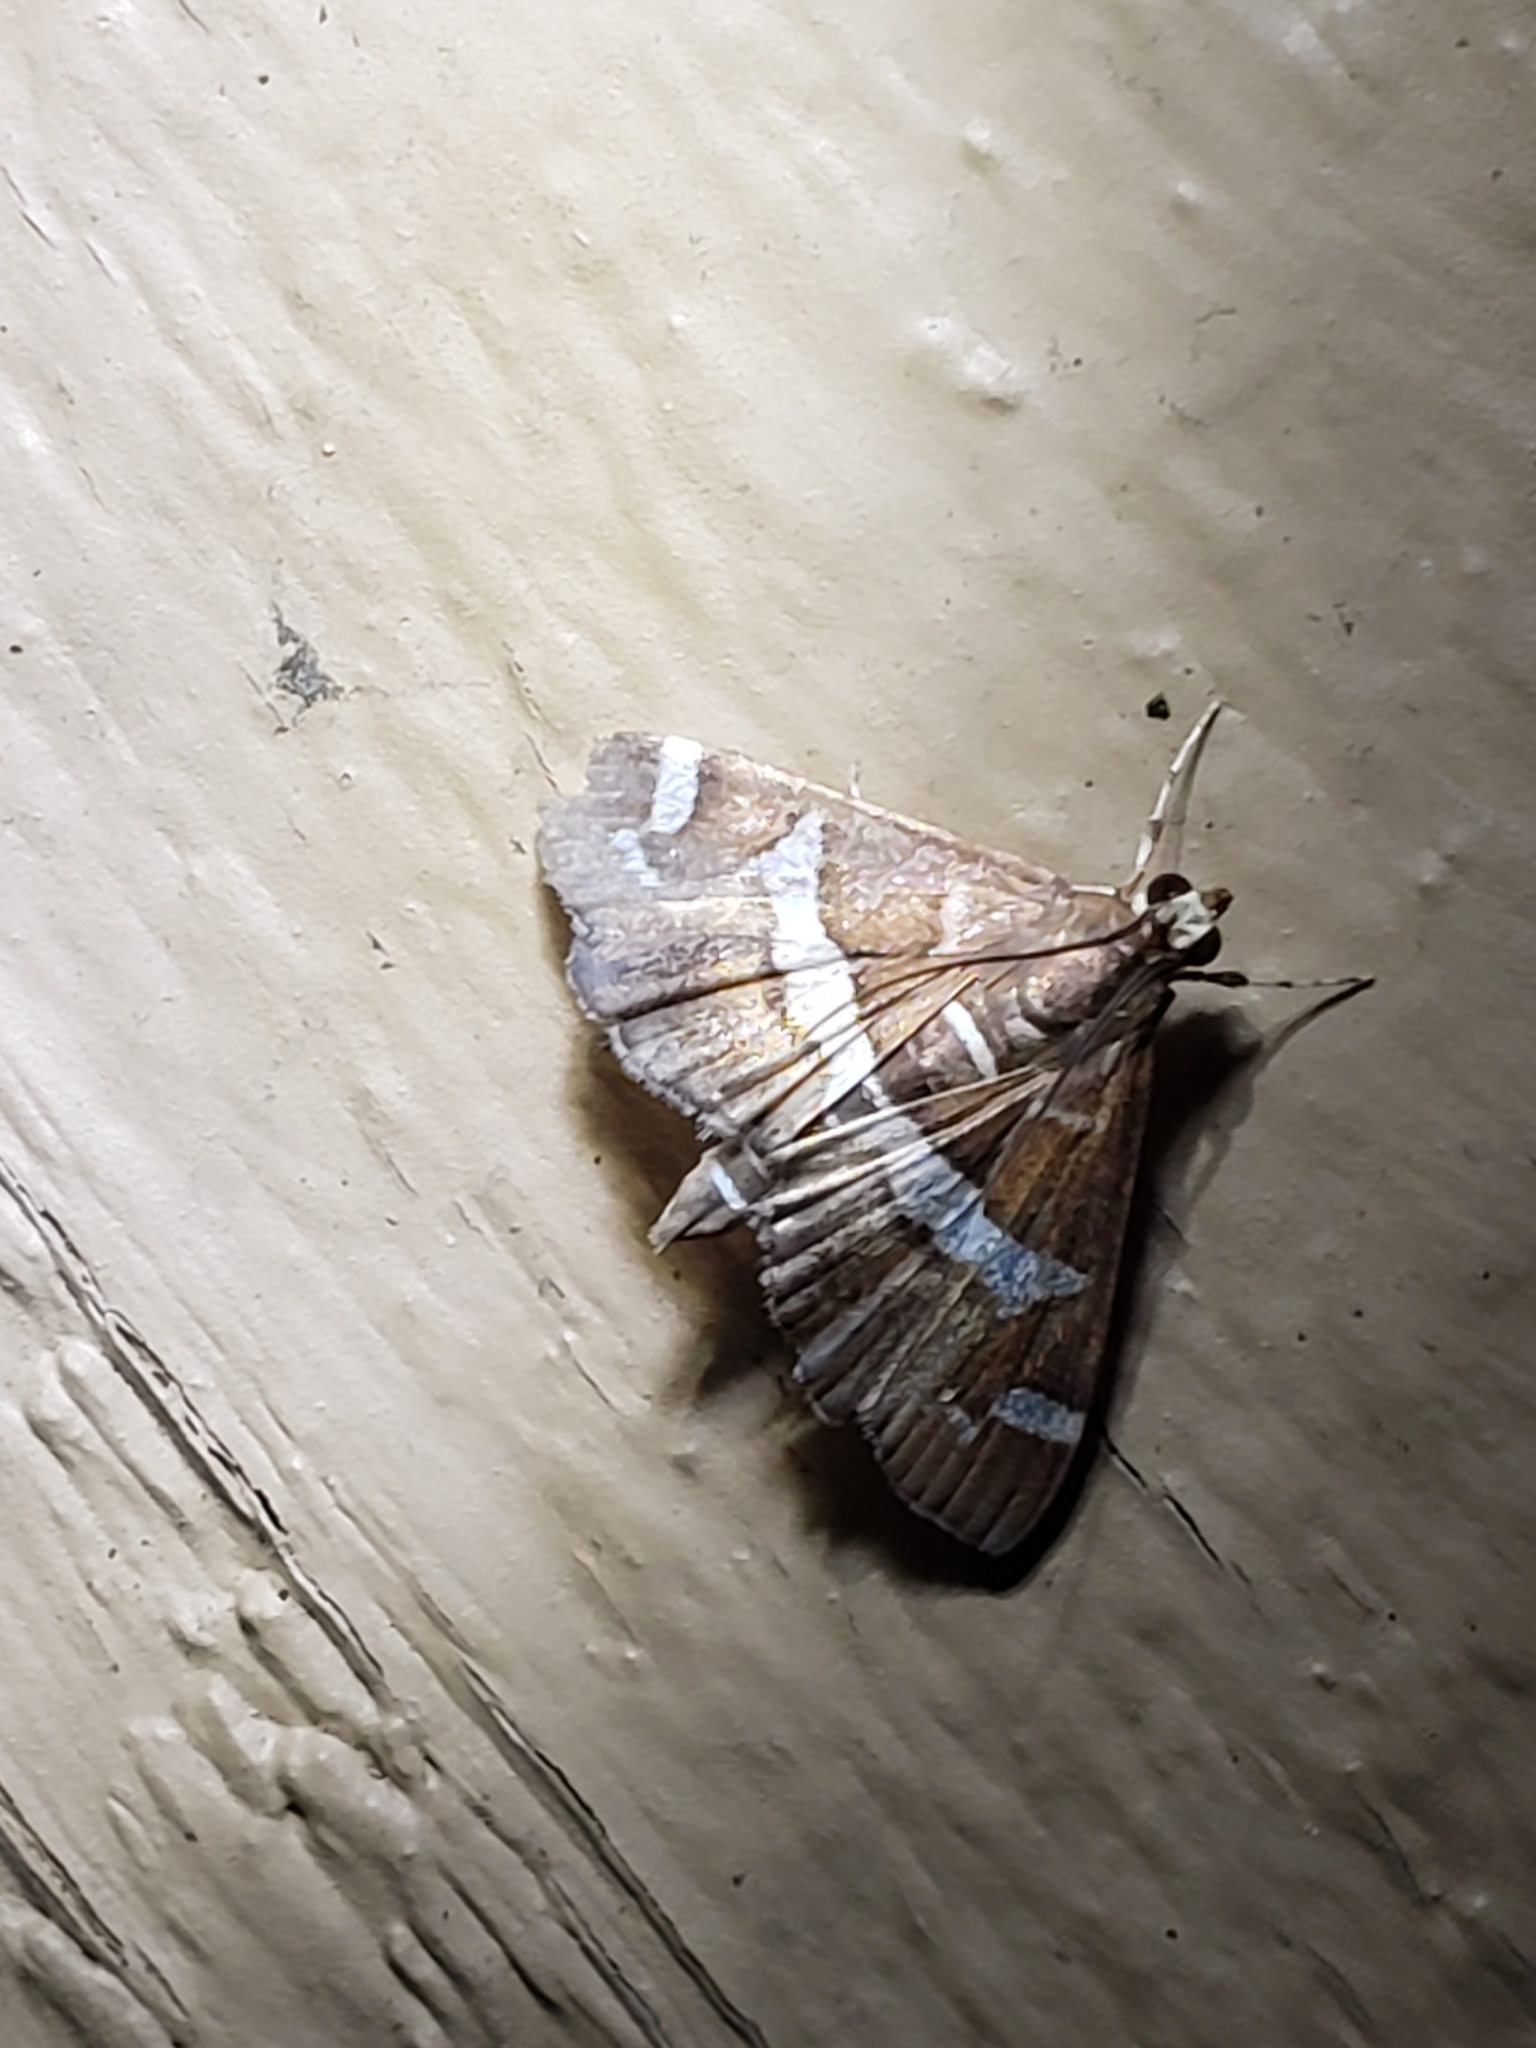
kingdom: Animalia
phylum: Arthropoda
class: Insecta
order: Lepidoptera
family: Crambidae
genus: Spoladea
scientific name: Spoladea recurvalis
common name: Beet webworm moth
